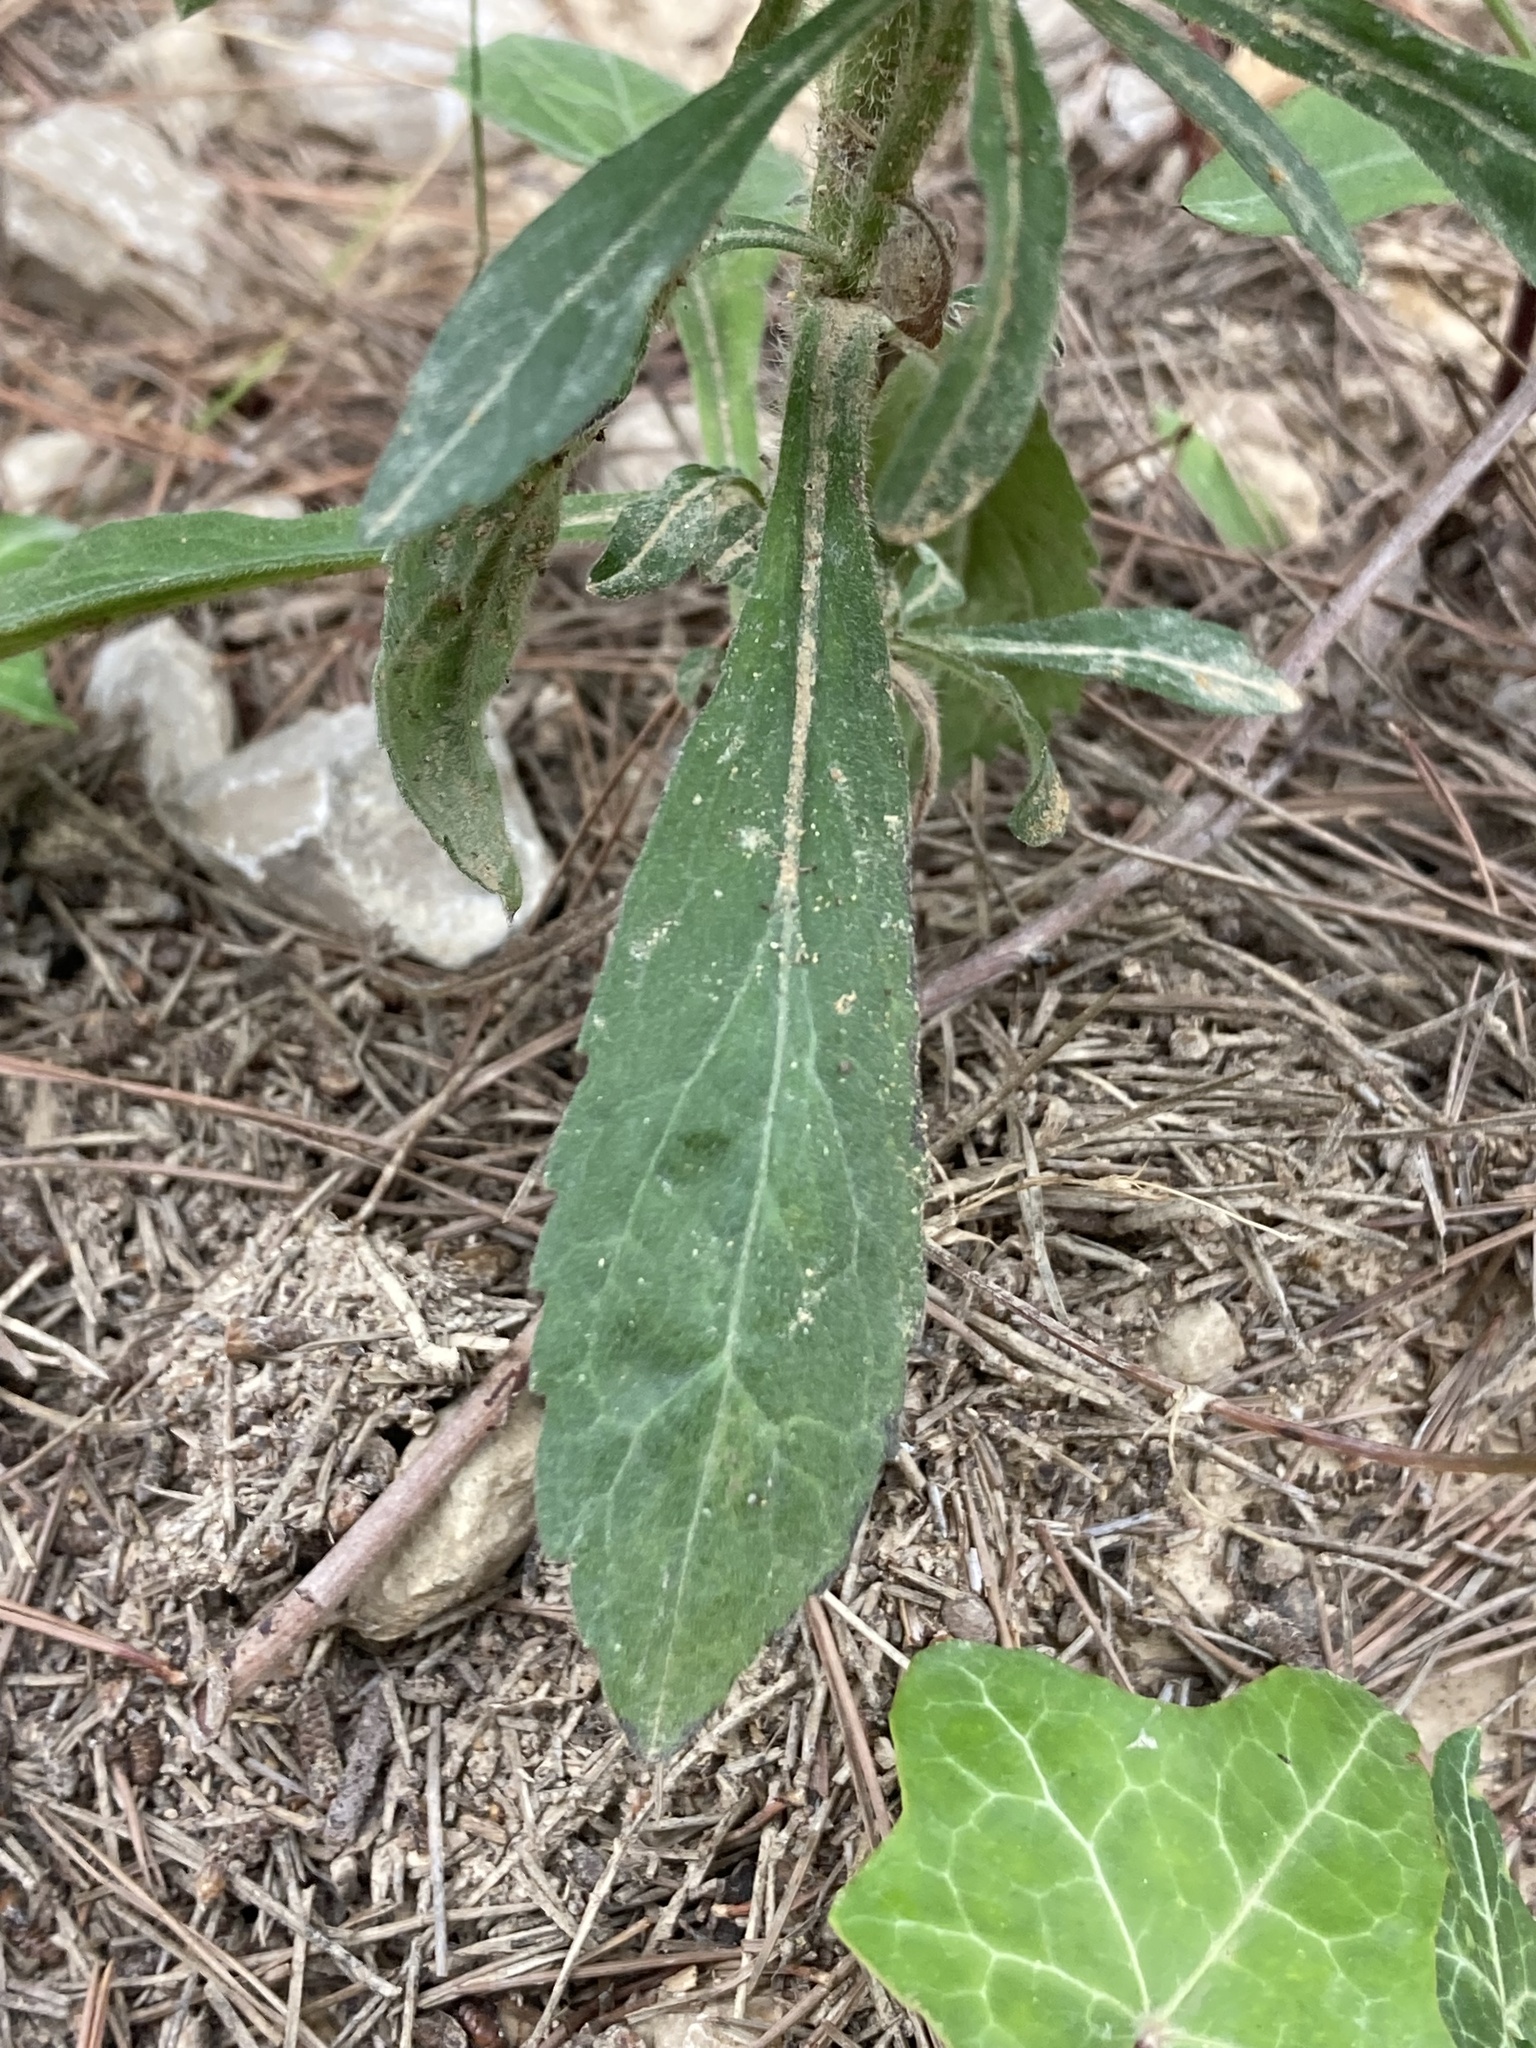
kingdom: Plantae
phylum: Tracheophyta
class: Magnoliopsida
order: Asterales
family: Asteraceae
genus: Erigeron
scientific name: Erigeron sumatrensis
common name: Daisy
